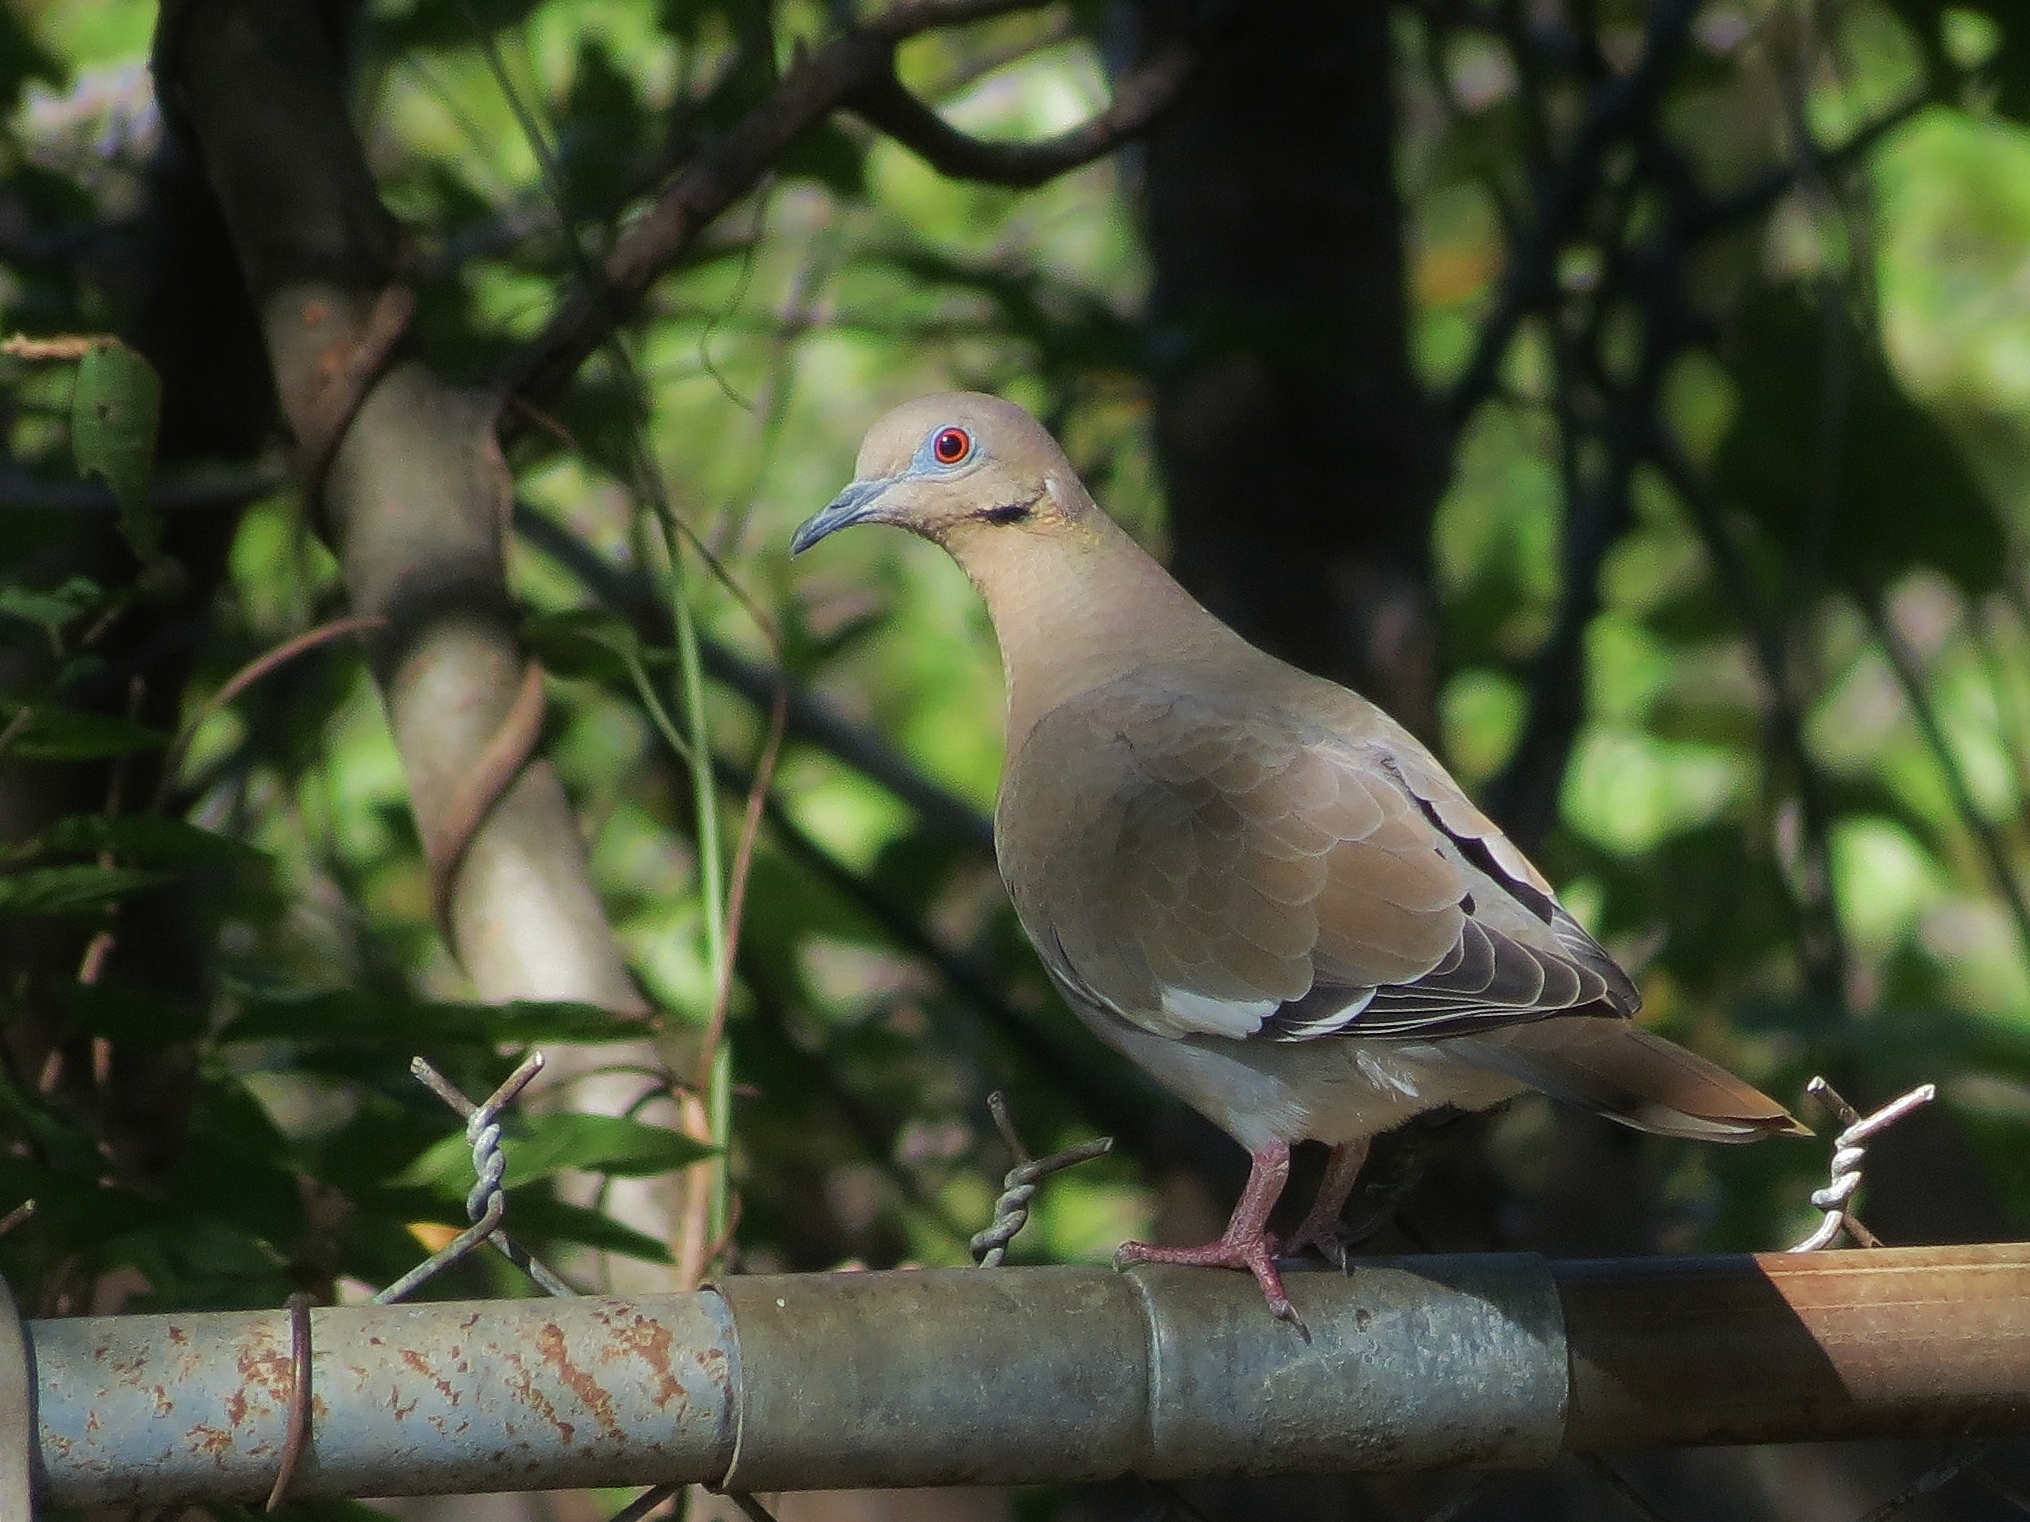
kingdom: Animalia
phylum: Chordata
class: Aves
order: Columbiformes
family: Columbidae
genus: Zenaida
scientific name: Zenaida asiatica
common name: White-winged dove
